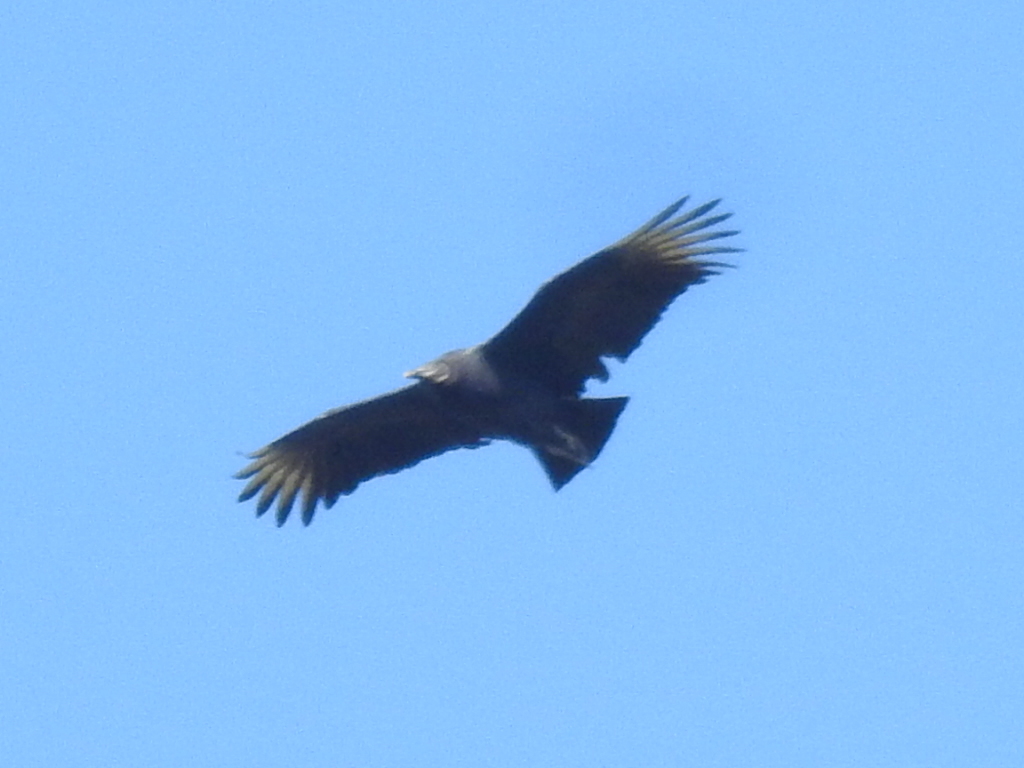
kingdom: Animalia
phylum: Chordata
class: Aves
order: Accipitriformes
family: Cathartidae
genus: Coragyps
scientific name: Coragyps atratus
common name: Black vulture
